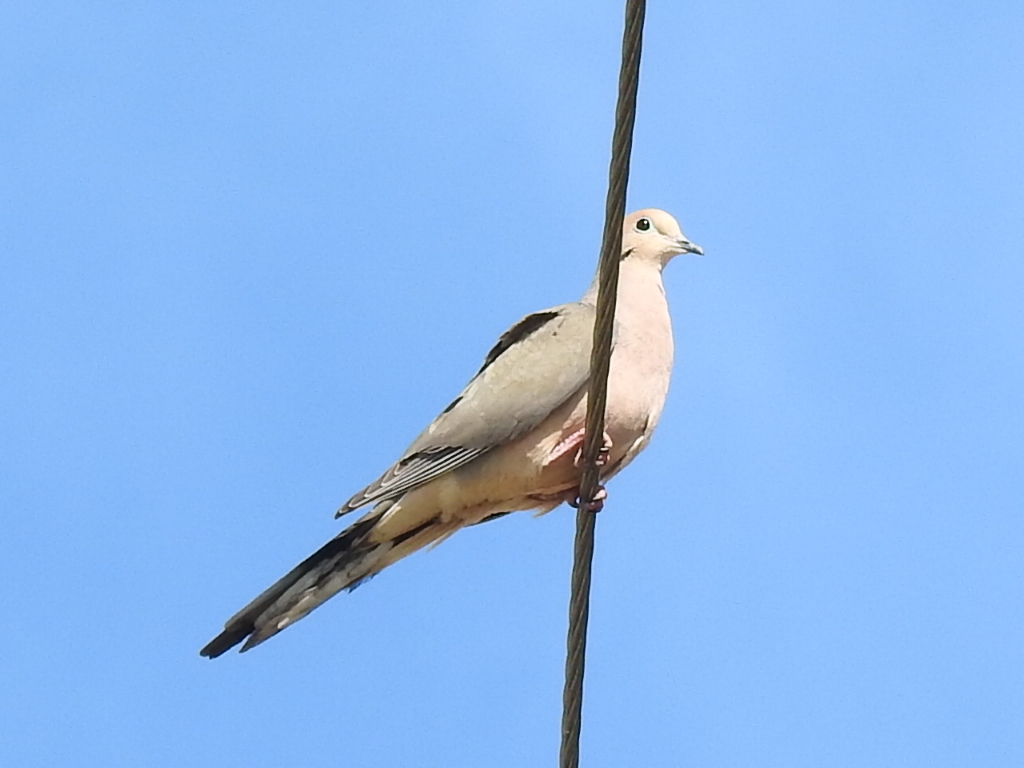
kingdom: Animalia
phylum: Chordata
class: Aves
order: Columbiformes
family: Columbidae
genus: Zenaida
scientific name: Zenaida macroura
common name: Mourning dove
